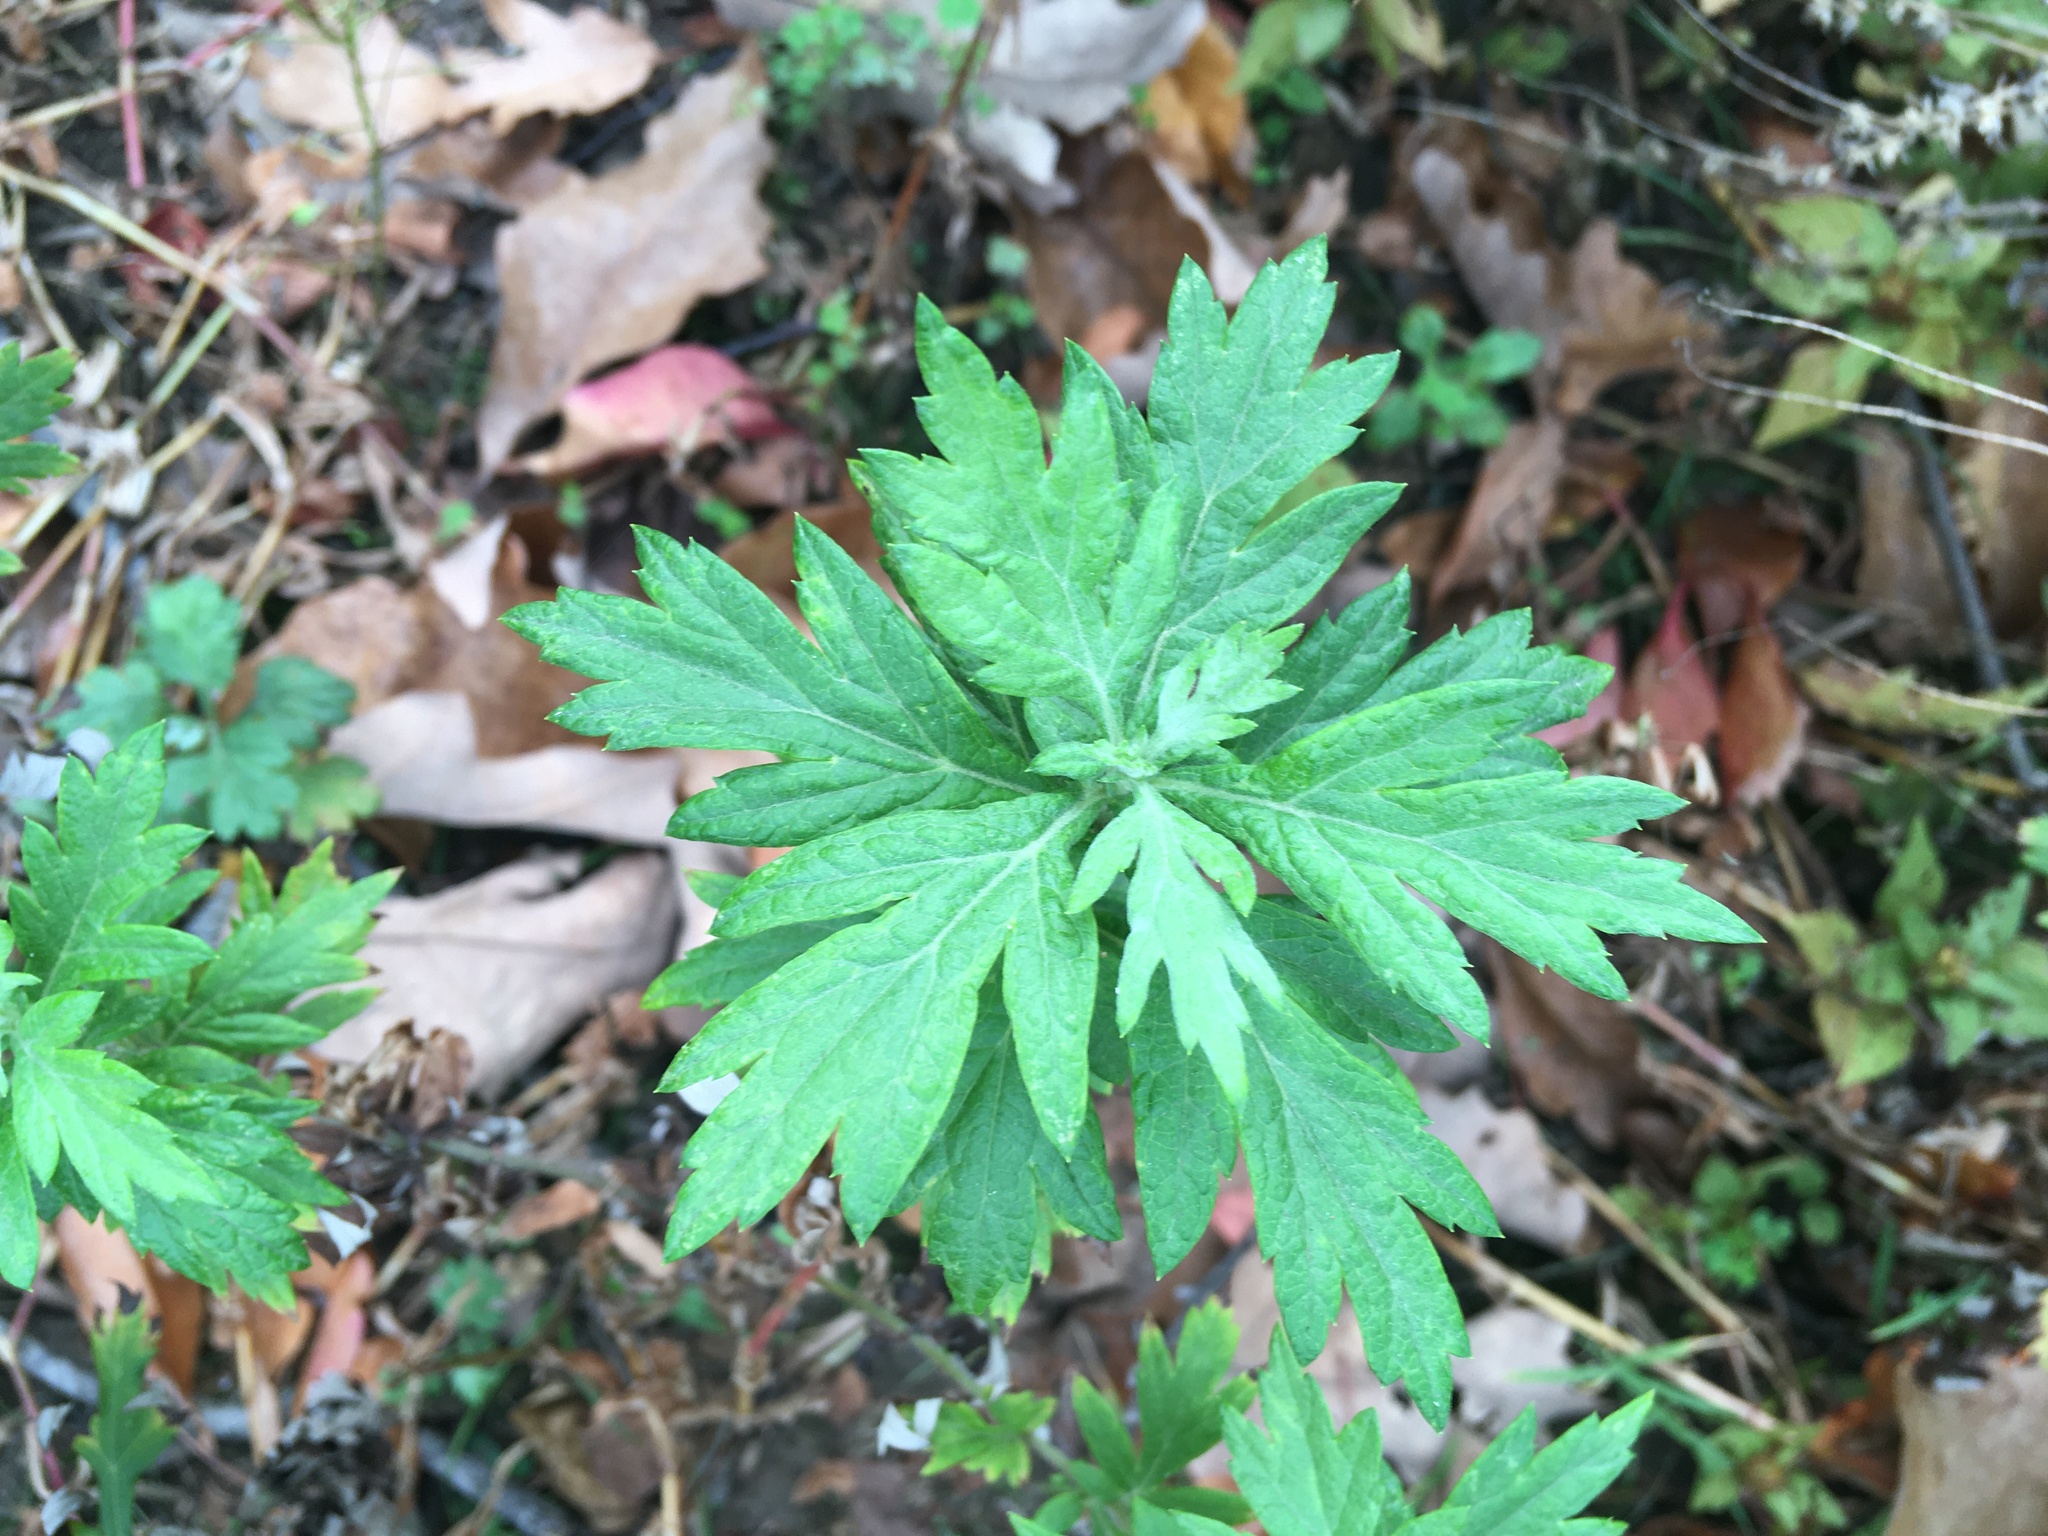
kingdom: Plantae
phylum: Tracheophyta
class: Magnoliopsida
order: Asterales
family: Asteraceae
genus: Artemisia
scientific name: Artemisia vulgaris
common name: Mugwort
